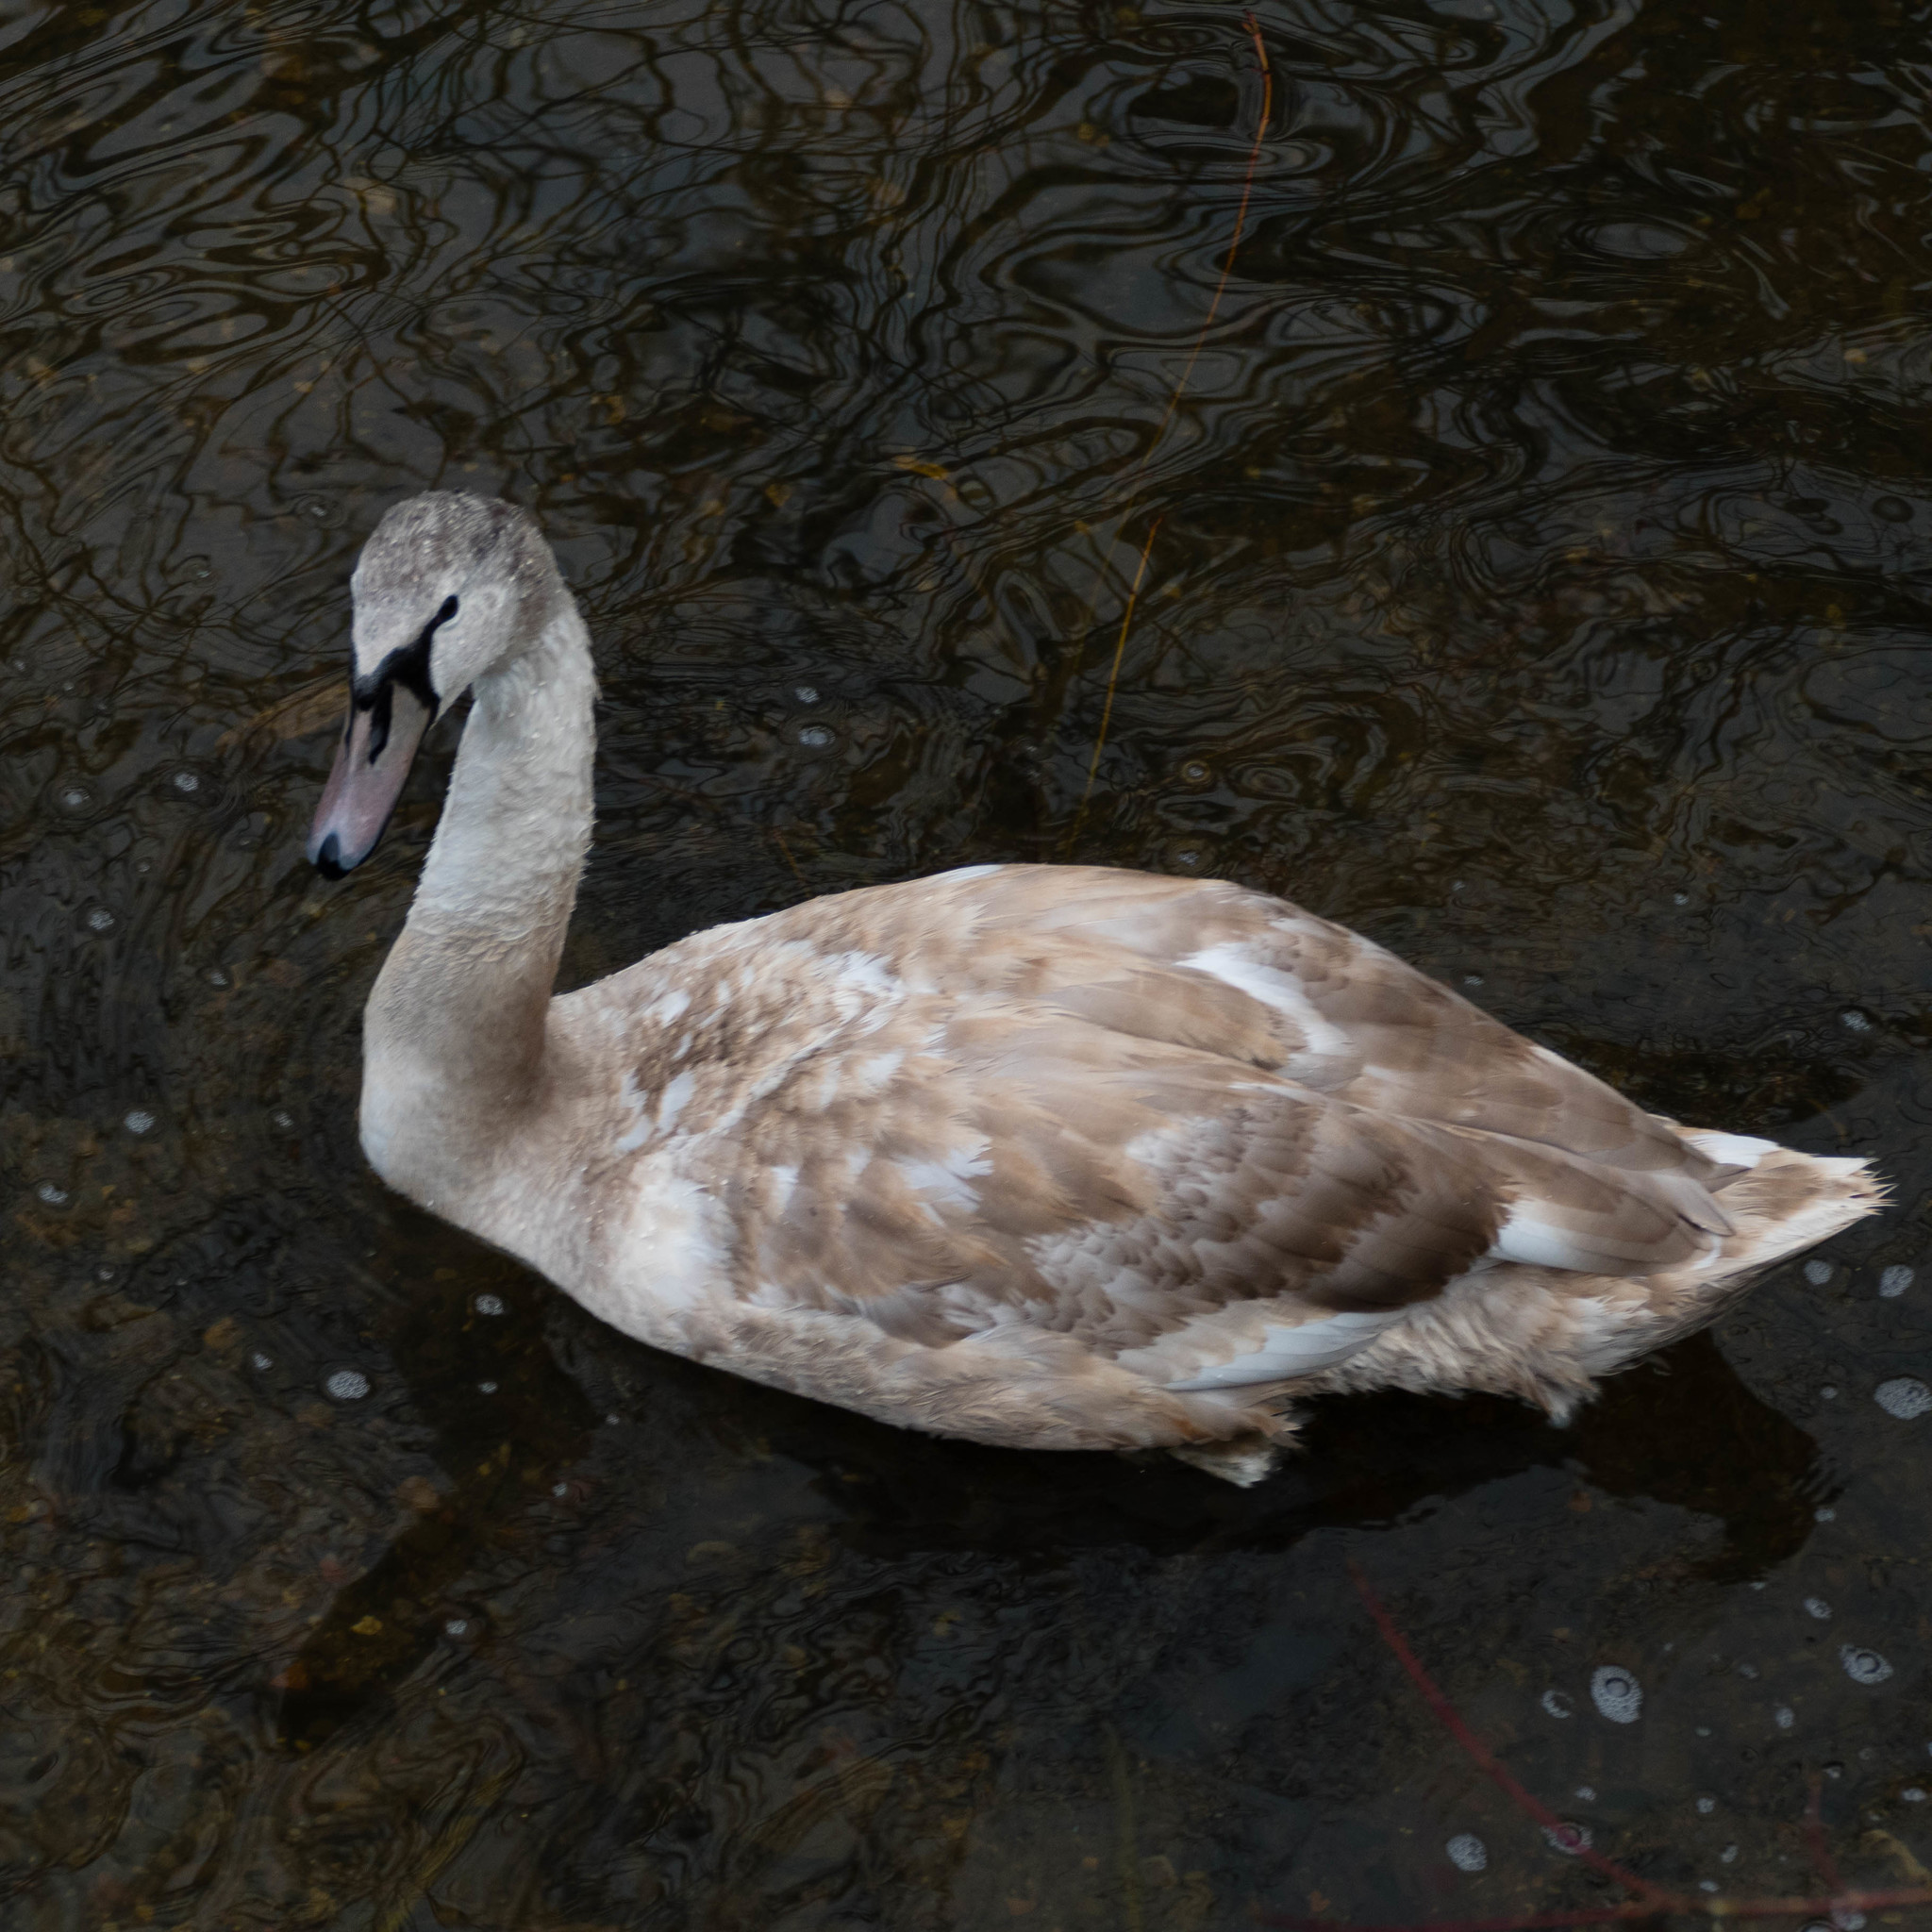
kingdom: Animalia
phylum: Chordata
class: Aves
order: Anseriformes
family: Anatidae
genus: Cygnus
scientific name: Cygnus olor
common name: Mute swan
